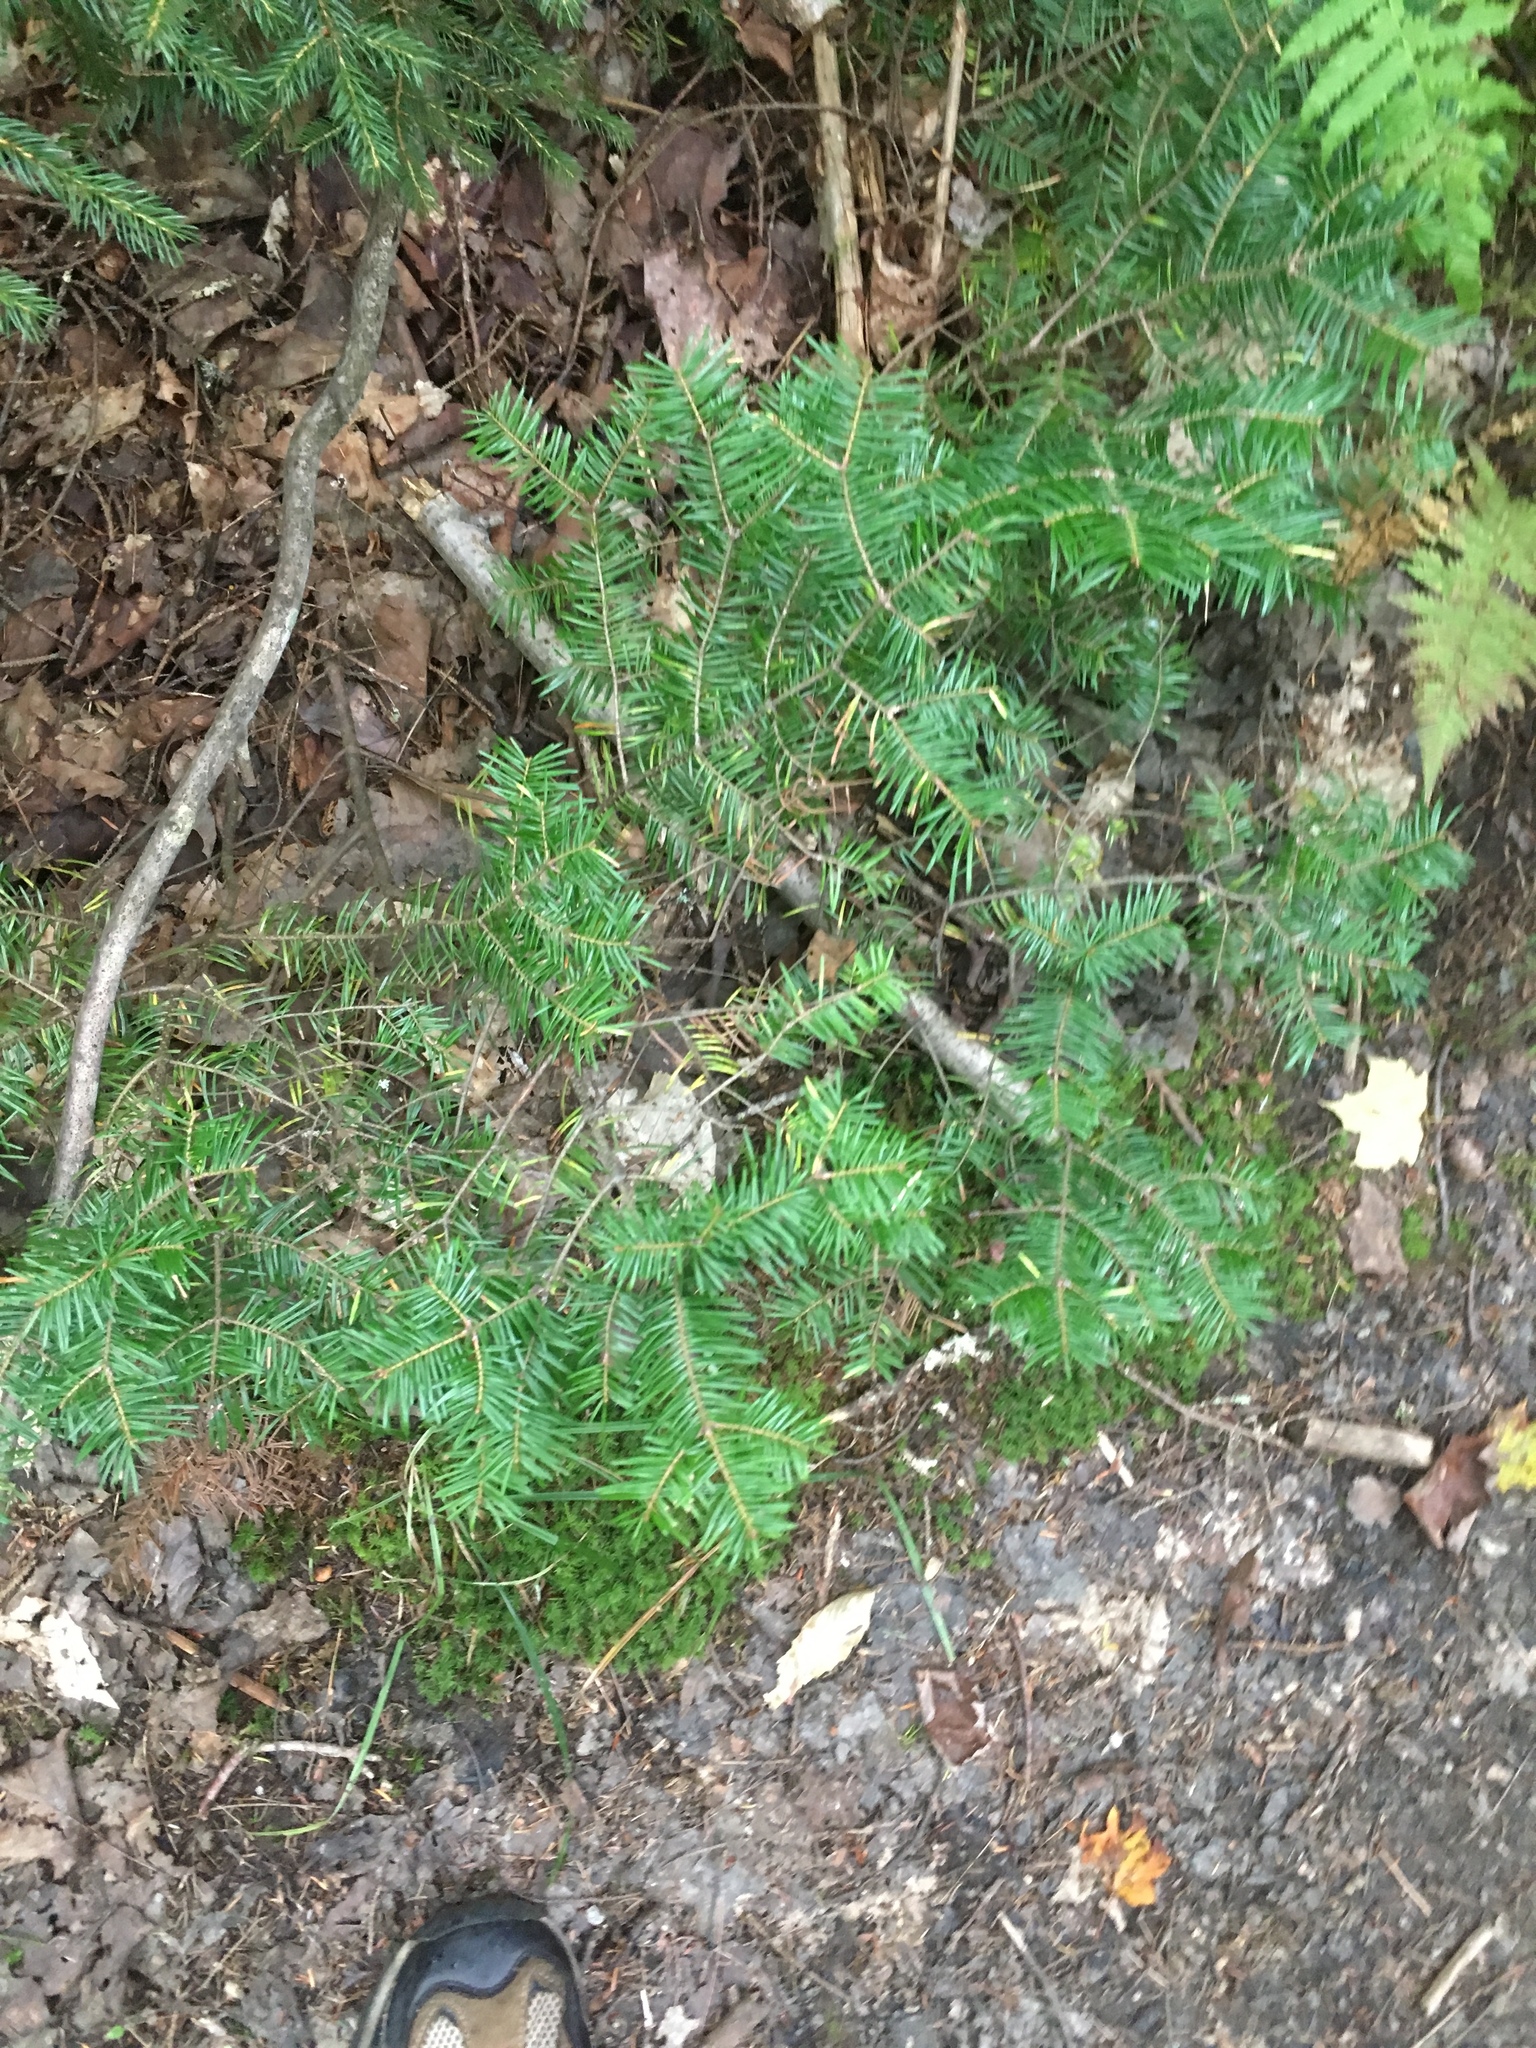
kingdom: Plantae
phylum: Tracheophyta
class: Pinopsida
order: Pinales
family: Pinaceae
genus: Abies
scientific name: Abies balsamea
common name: Balsam fir
